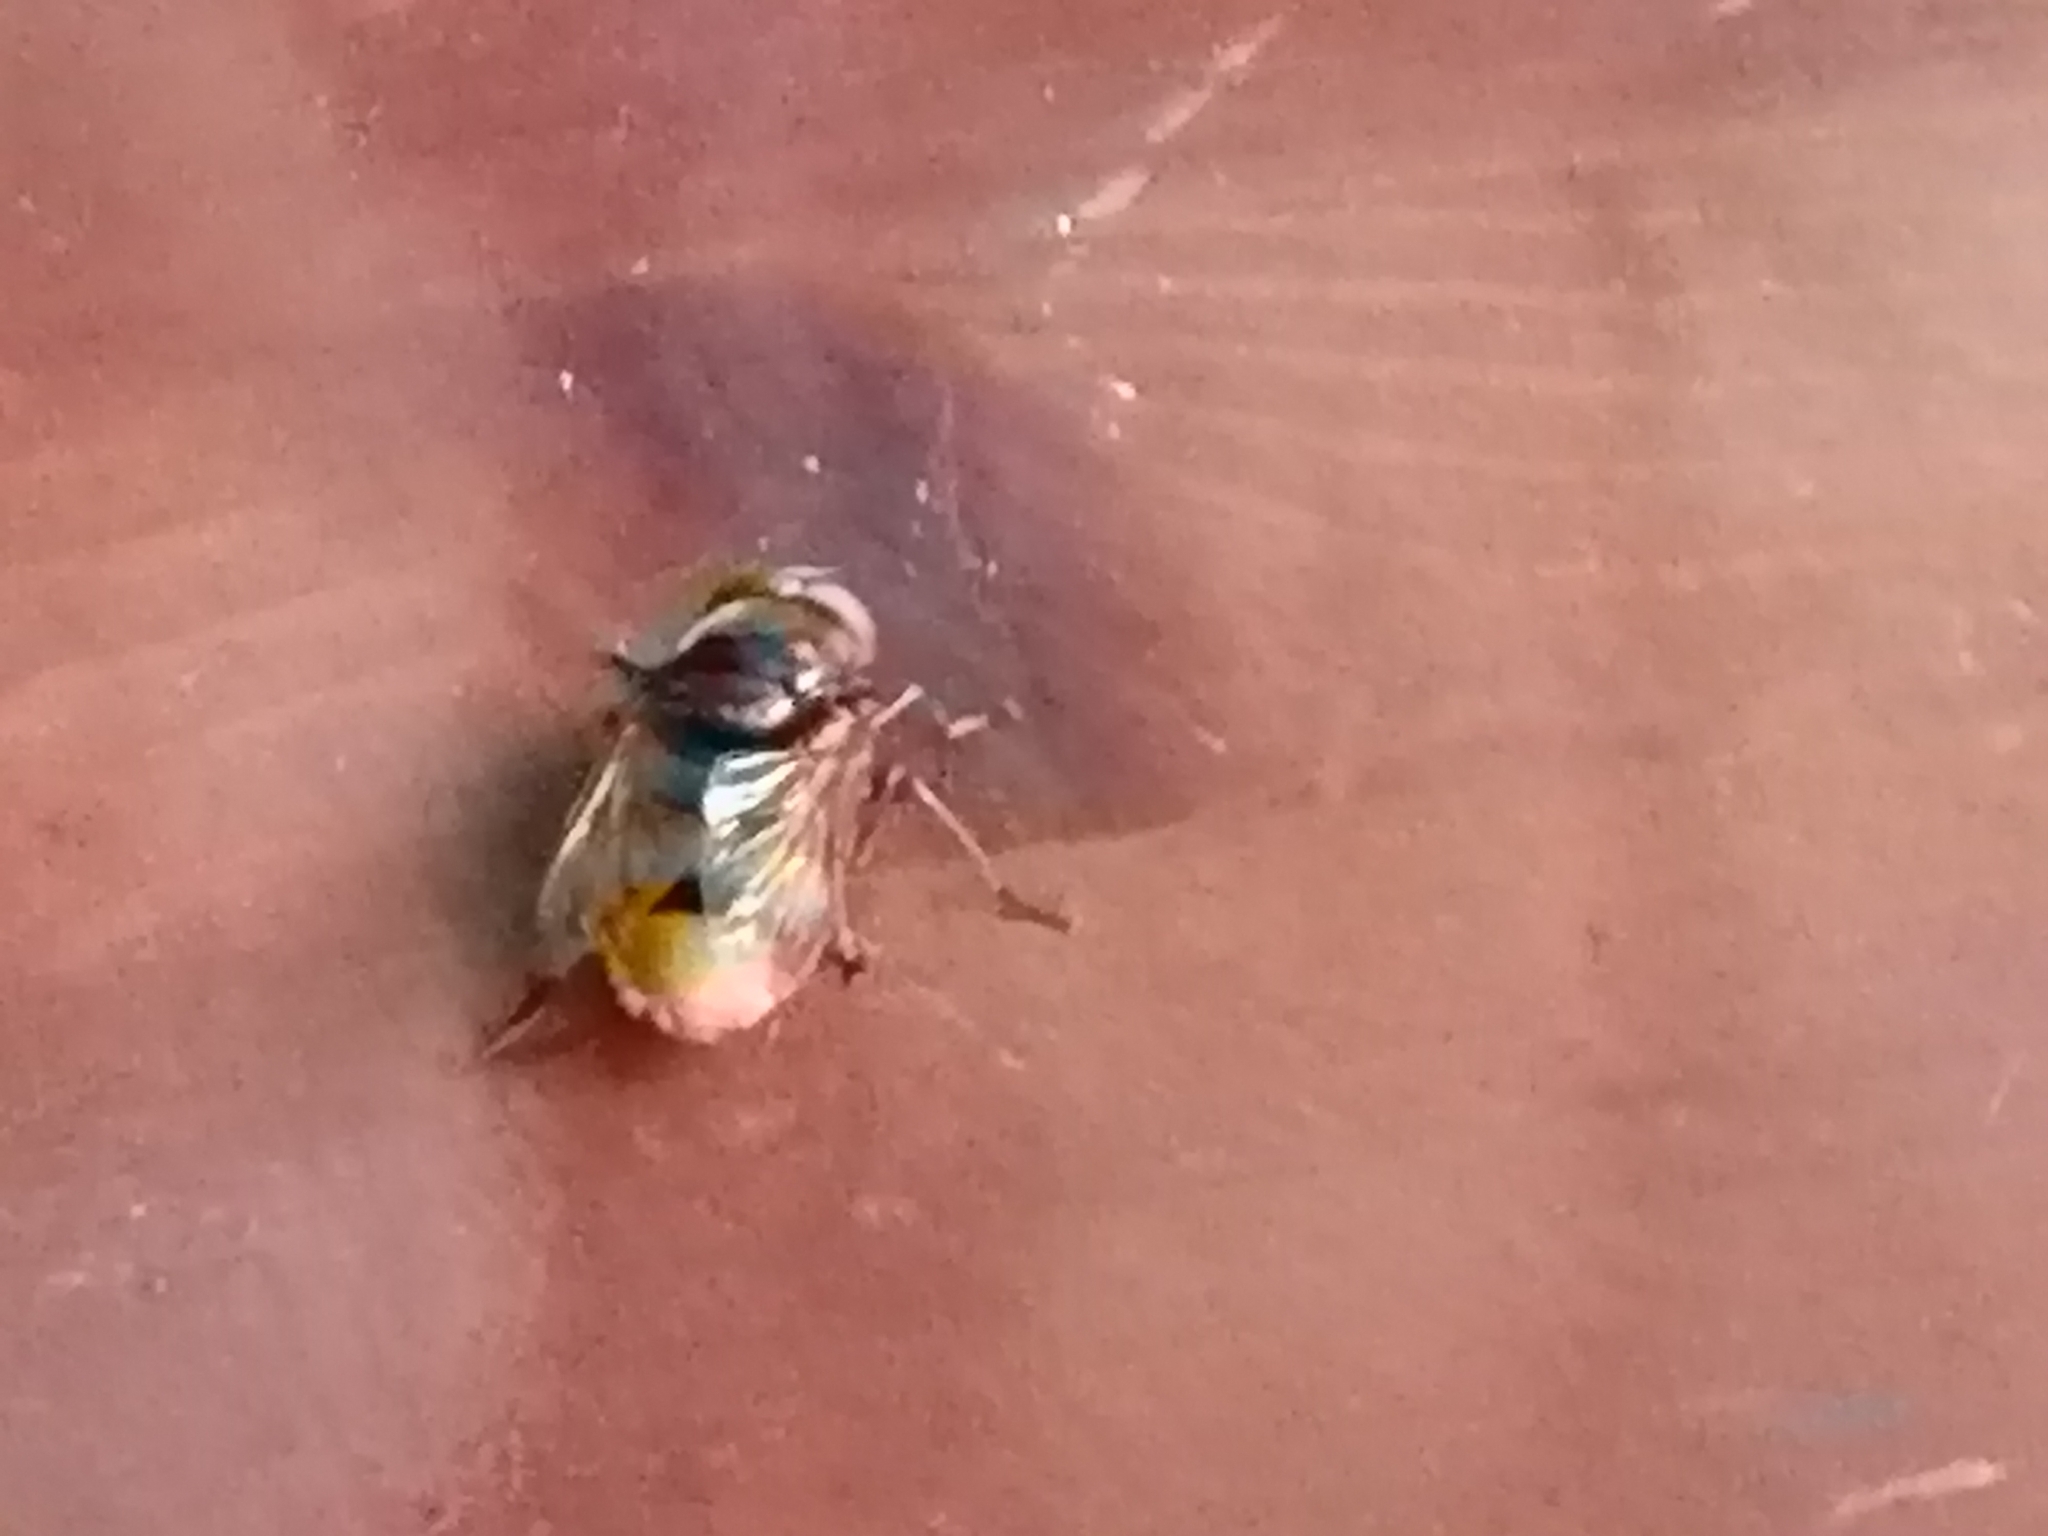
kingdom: Animalia
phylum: Arthropoda
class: Insecta
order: Diptera
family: Syrphidae
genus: Volucella
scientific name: Volucella zonaria
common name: Hornet hoverfly
